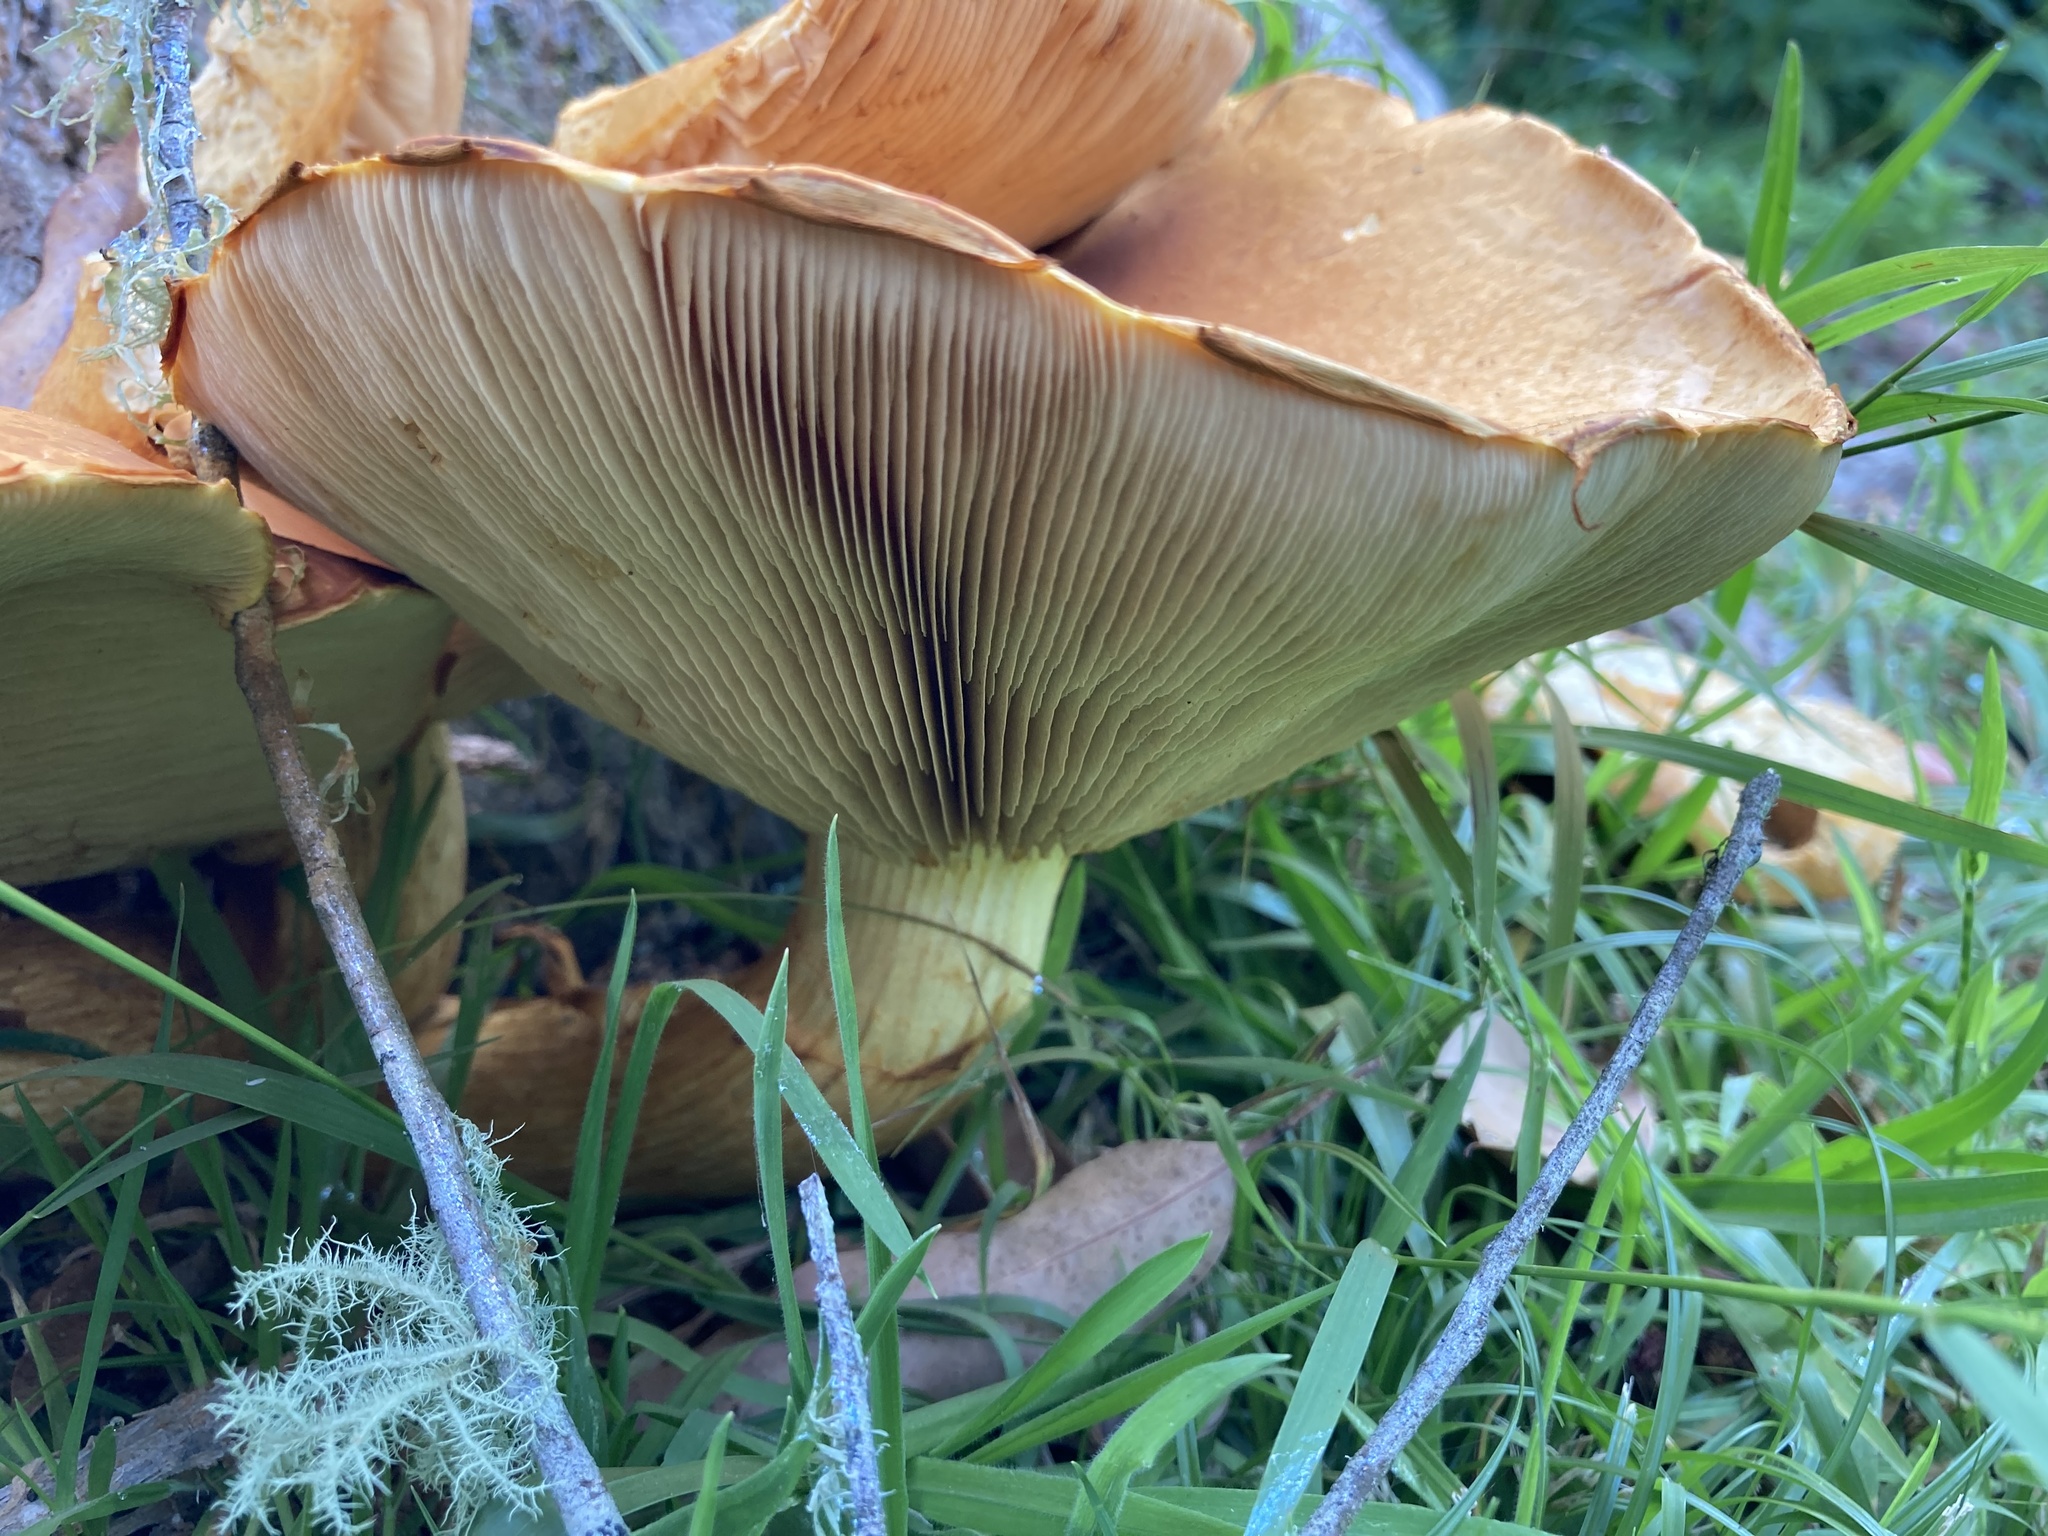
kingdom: Fungi
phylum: Basidiomycota
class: Agaricomycetes
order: Agaricales
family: Hymenogastraceae
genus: Gymnopilus
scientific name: Gymnopilus junonius
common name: Spectacular rustgill
